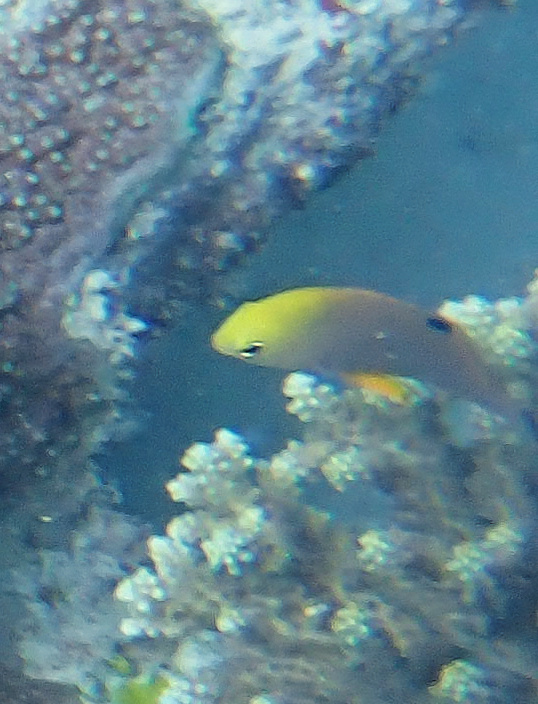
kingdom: Animalia
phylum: Chordata
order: Perciformes
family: Pomacentridae
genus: Chrysiptera
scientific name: Chrysiptera talboti
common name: Talbot's demoiselle
